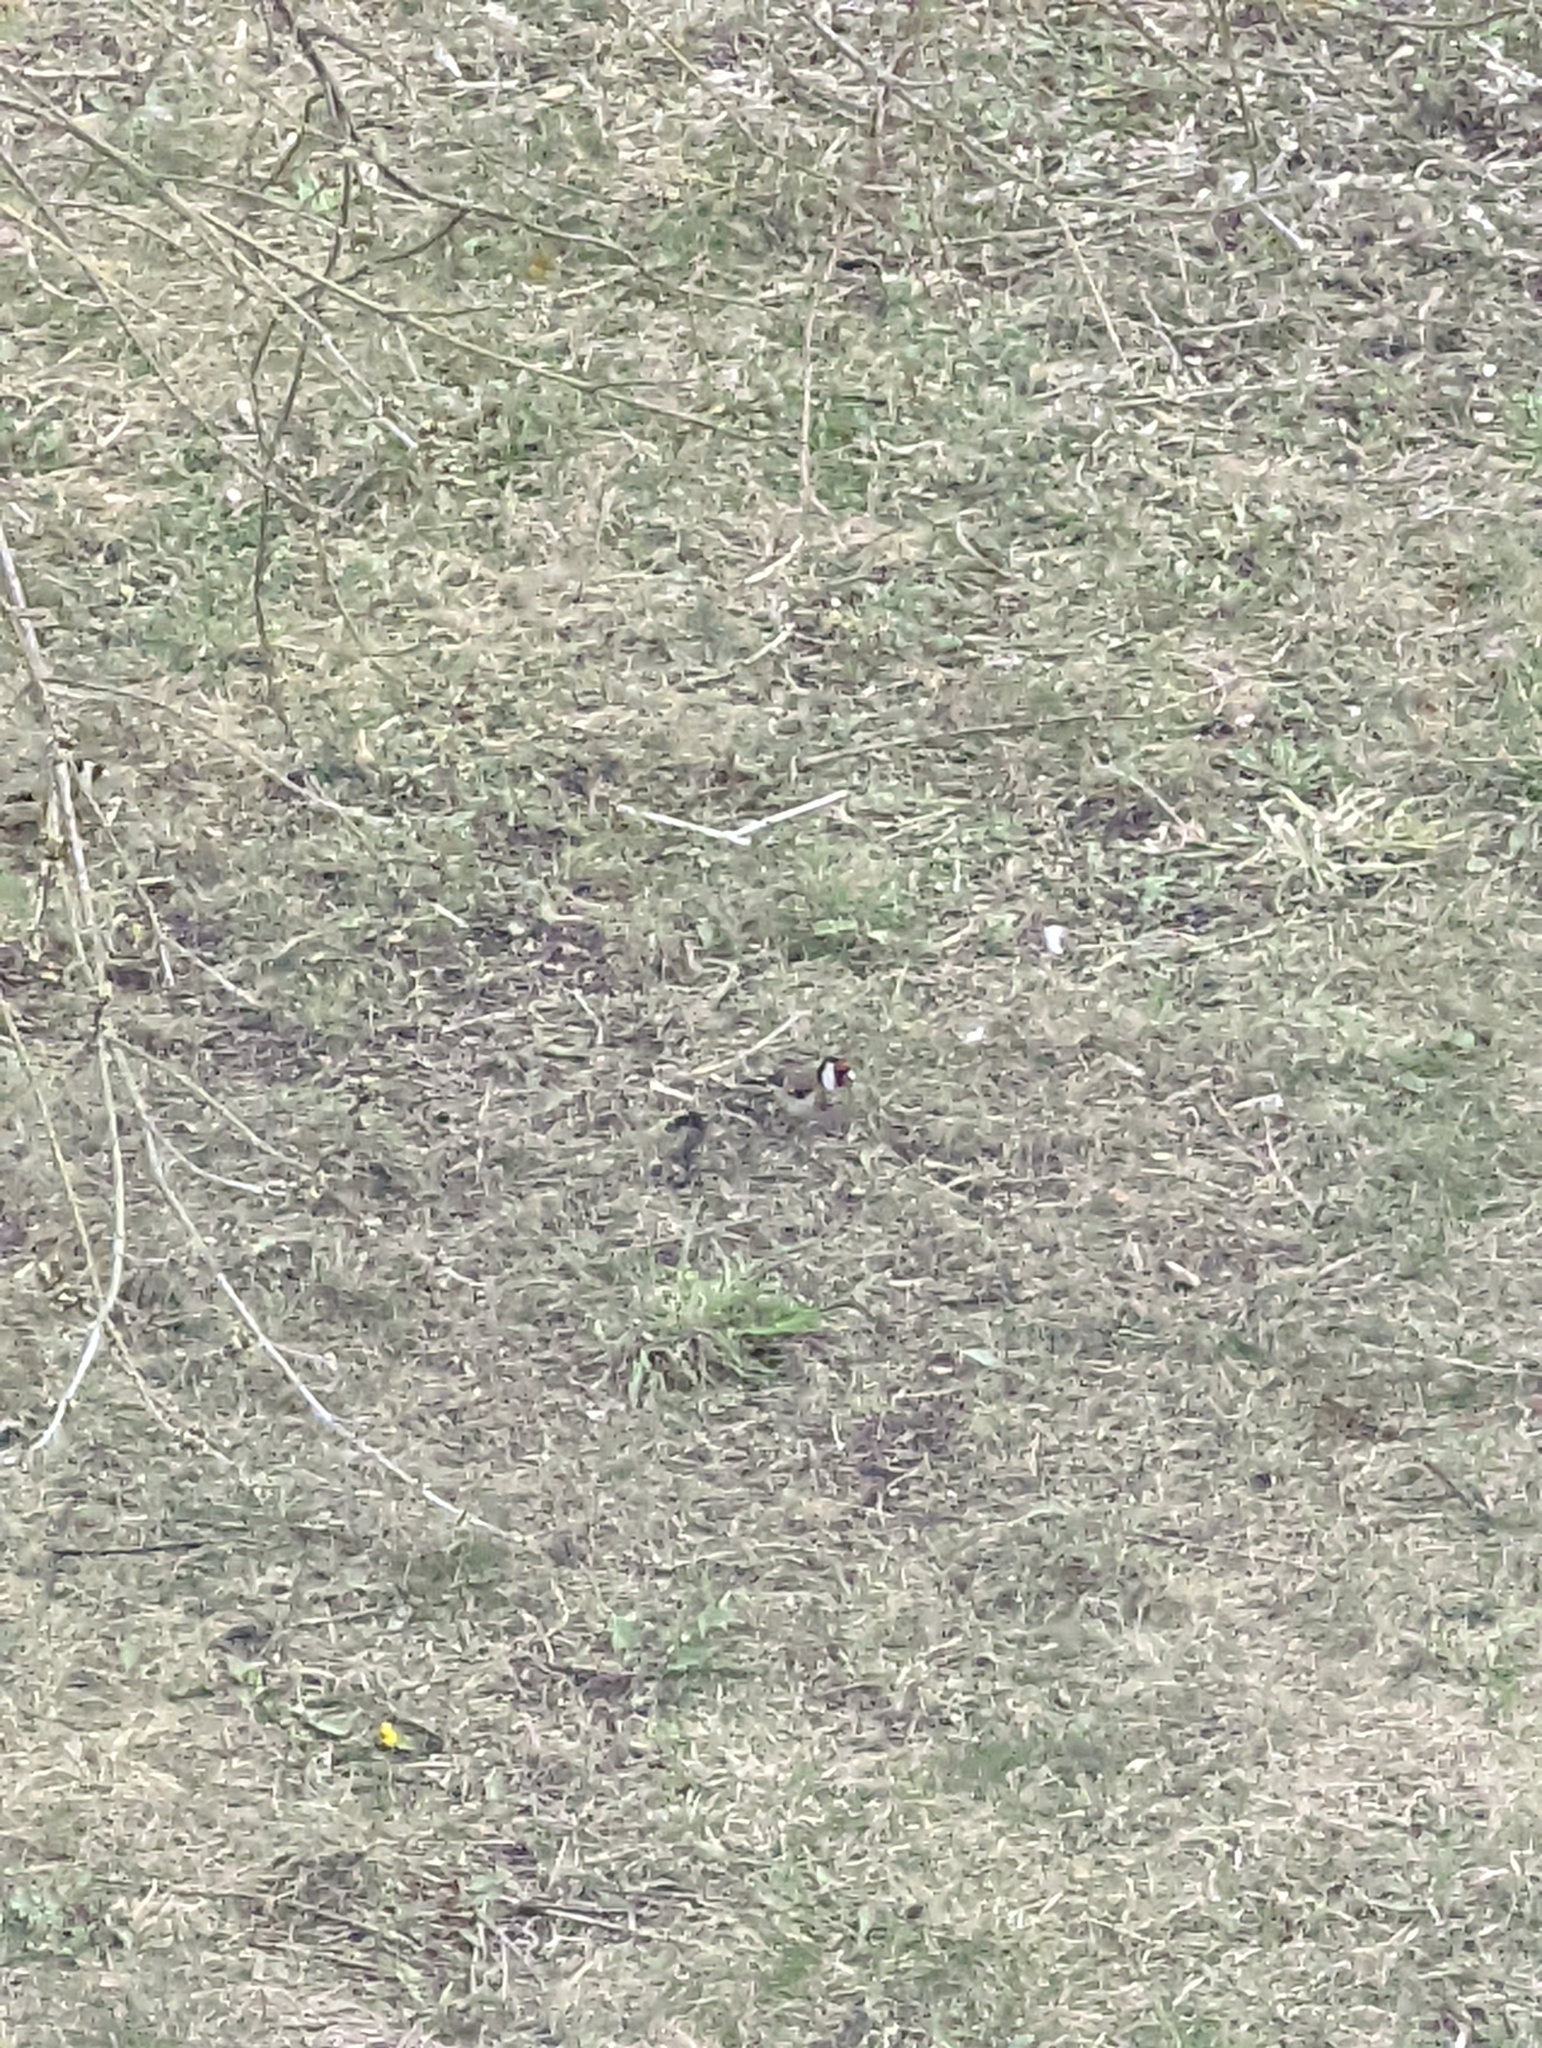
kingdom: Animalia
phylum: Chordata
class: Aves
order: Passeriformes
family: Fringillidae
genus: Carduelis
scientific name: Carduelis carduelis
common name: European goldfinch
